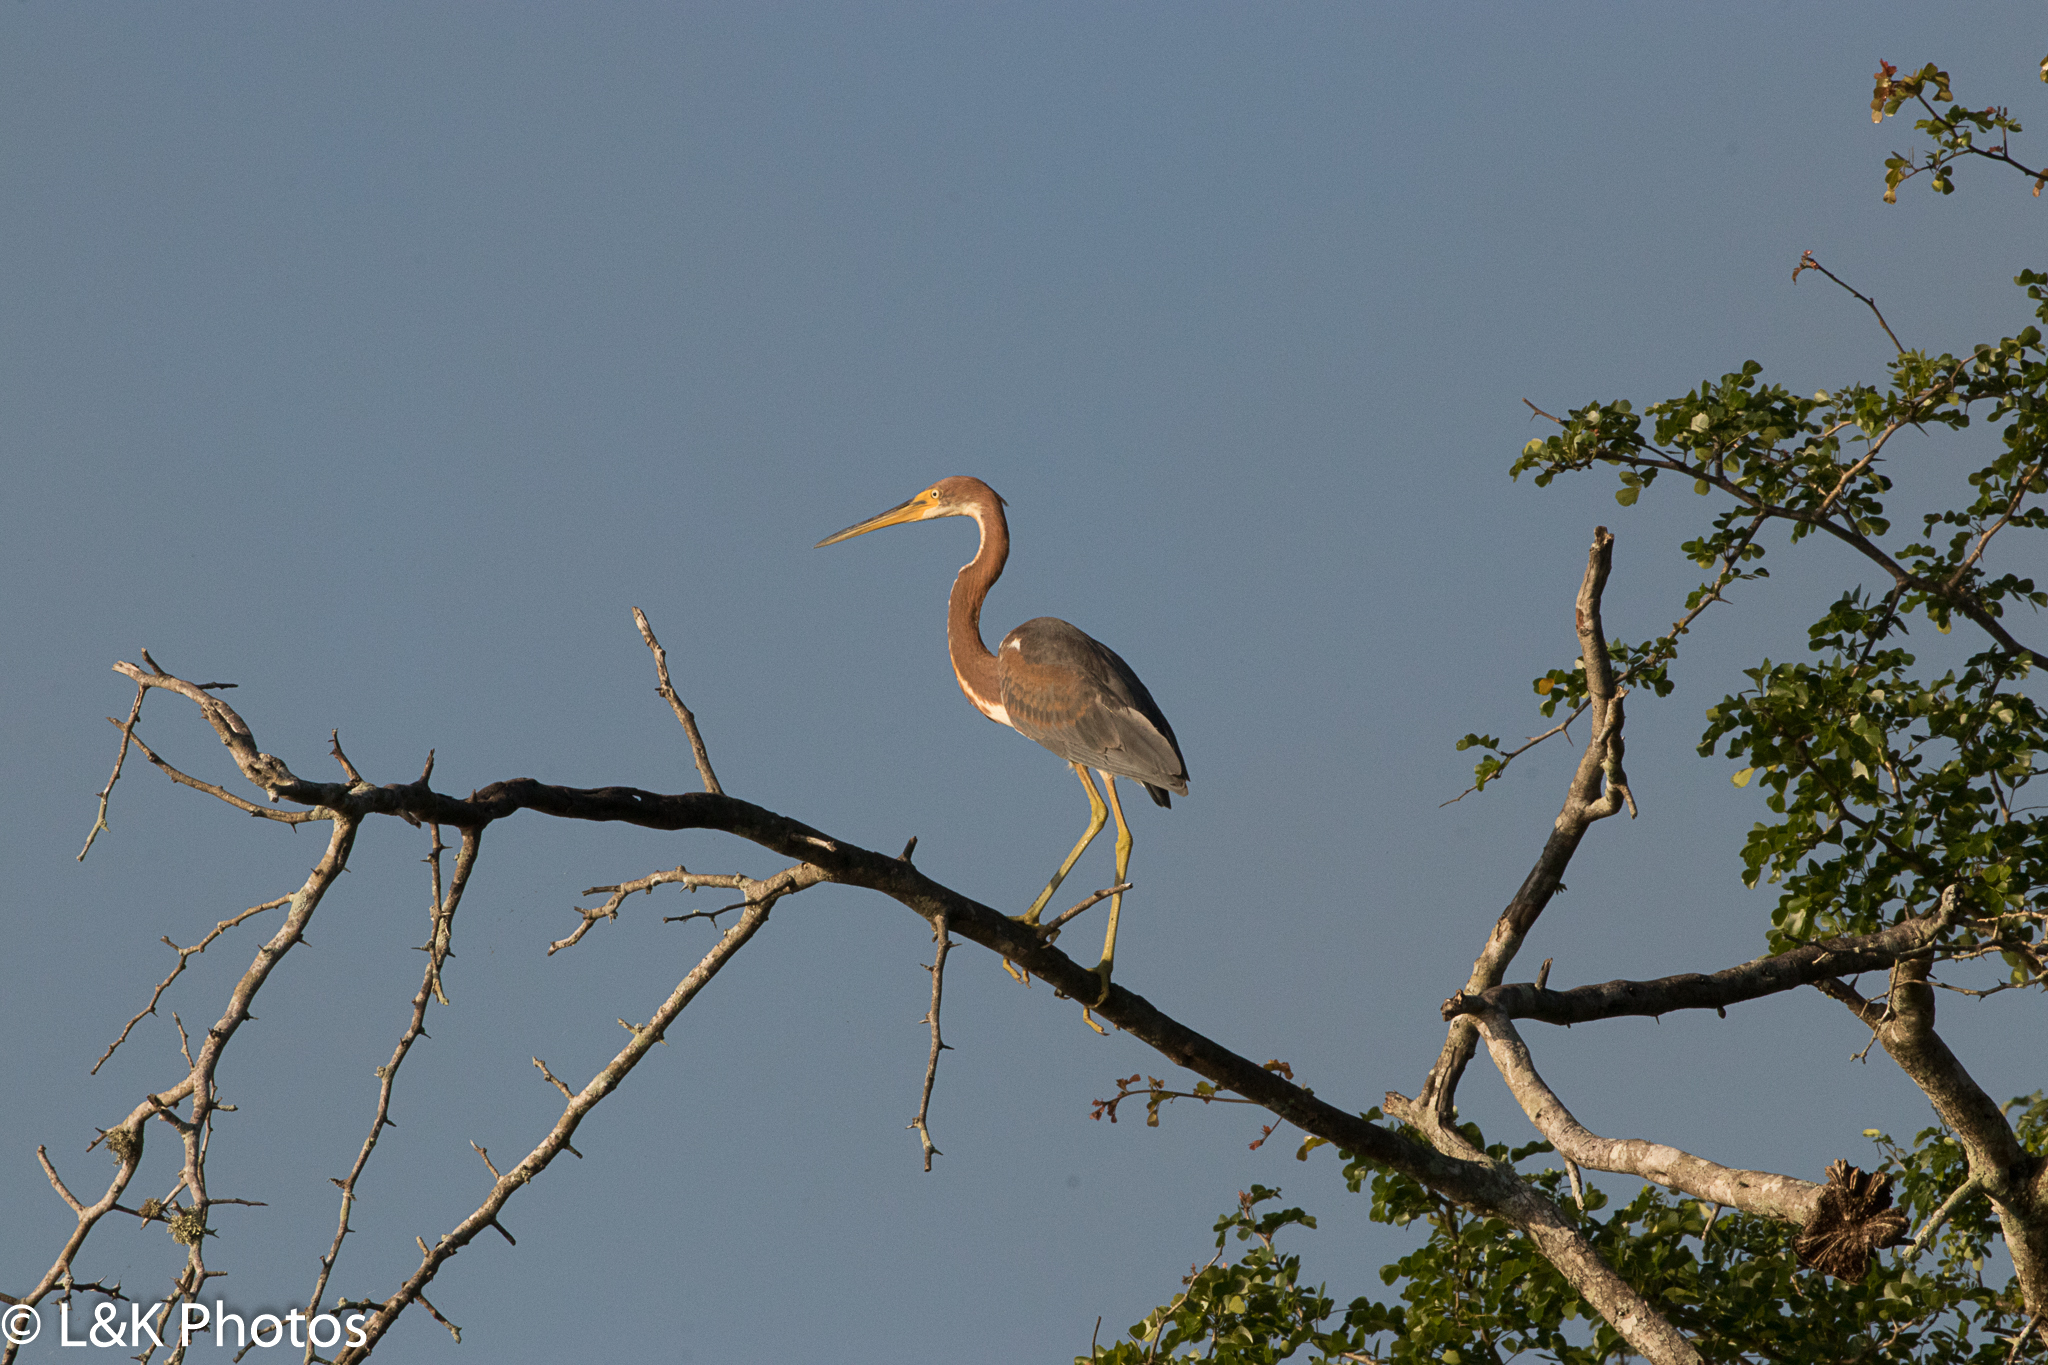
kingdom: Animalia
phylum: Chordata
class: Aves
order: Pelecaniformes
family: Ardeidae
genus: Egretta
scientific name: Egretta tricolor
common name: Tricolored heron
